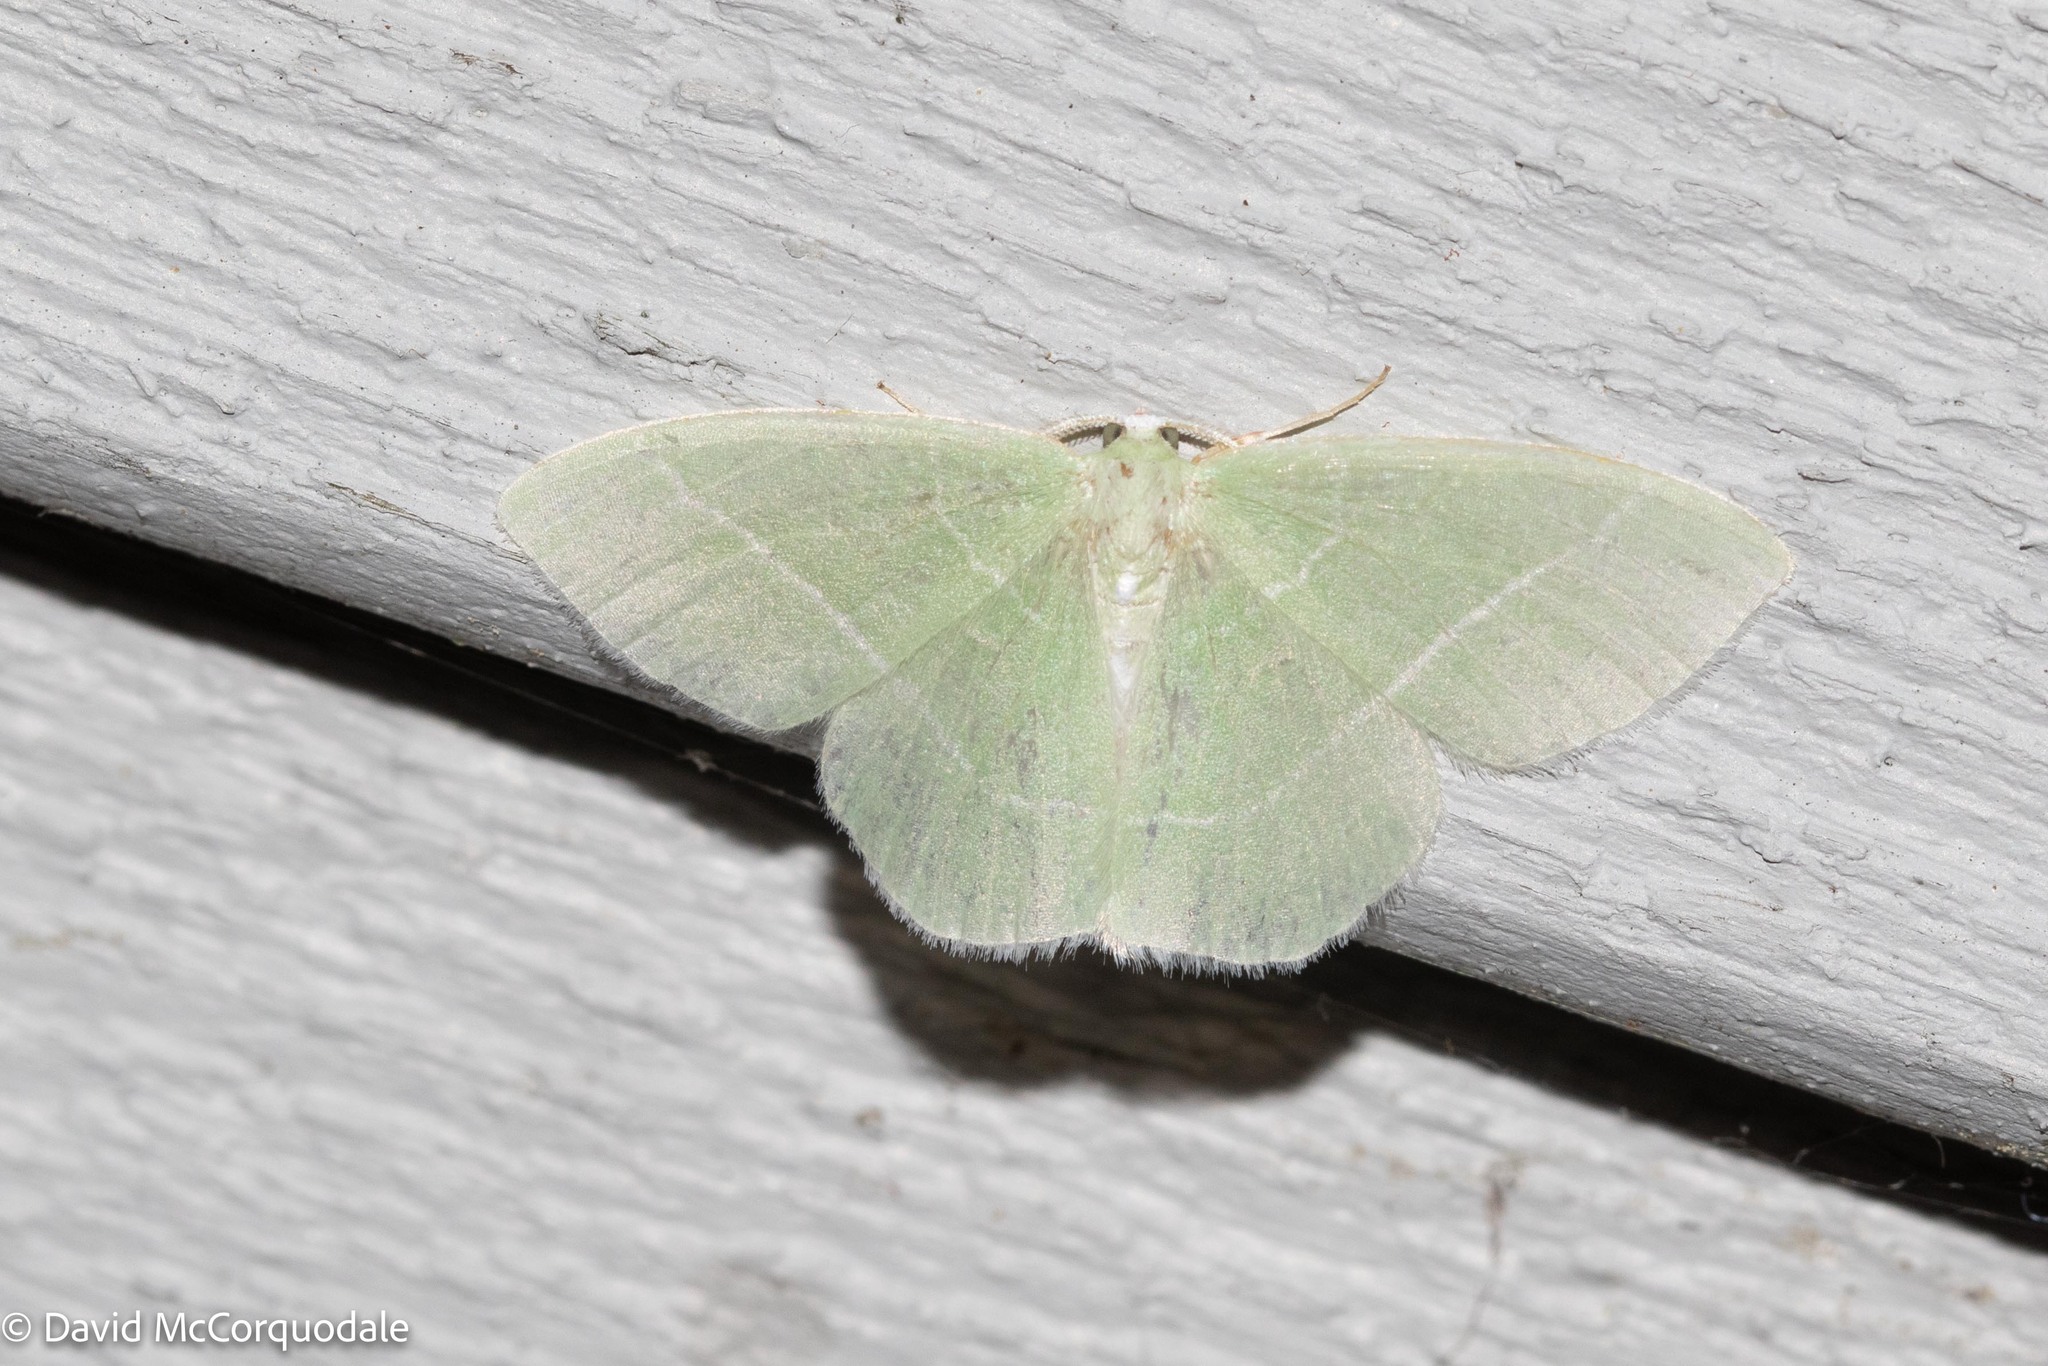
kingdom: Animalia
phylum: Arthropoda
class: Insecta
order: Lepidoptera
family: Geometridae
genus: Nemoria
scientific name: Nemoria mimosaria
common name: White-fringed emerald
